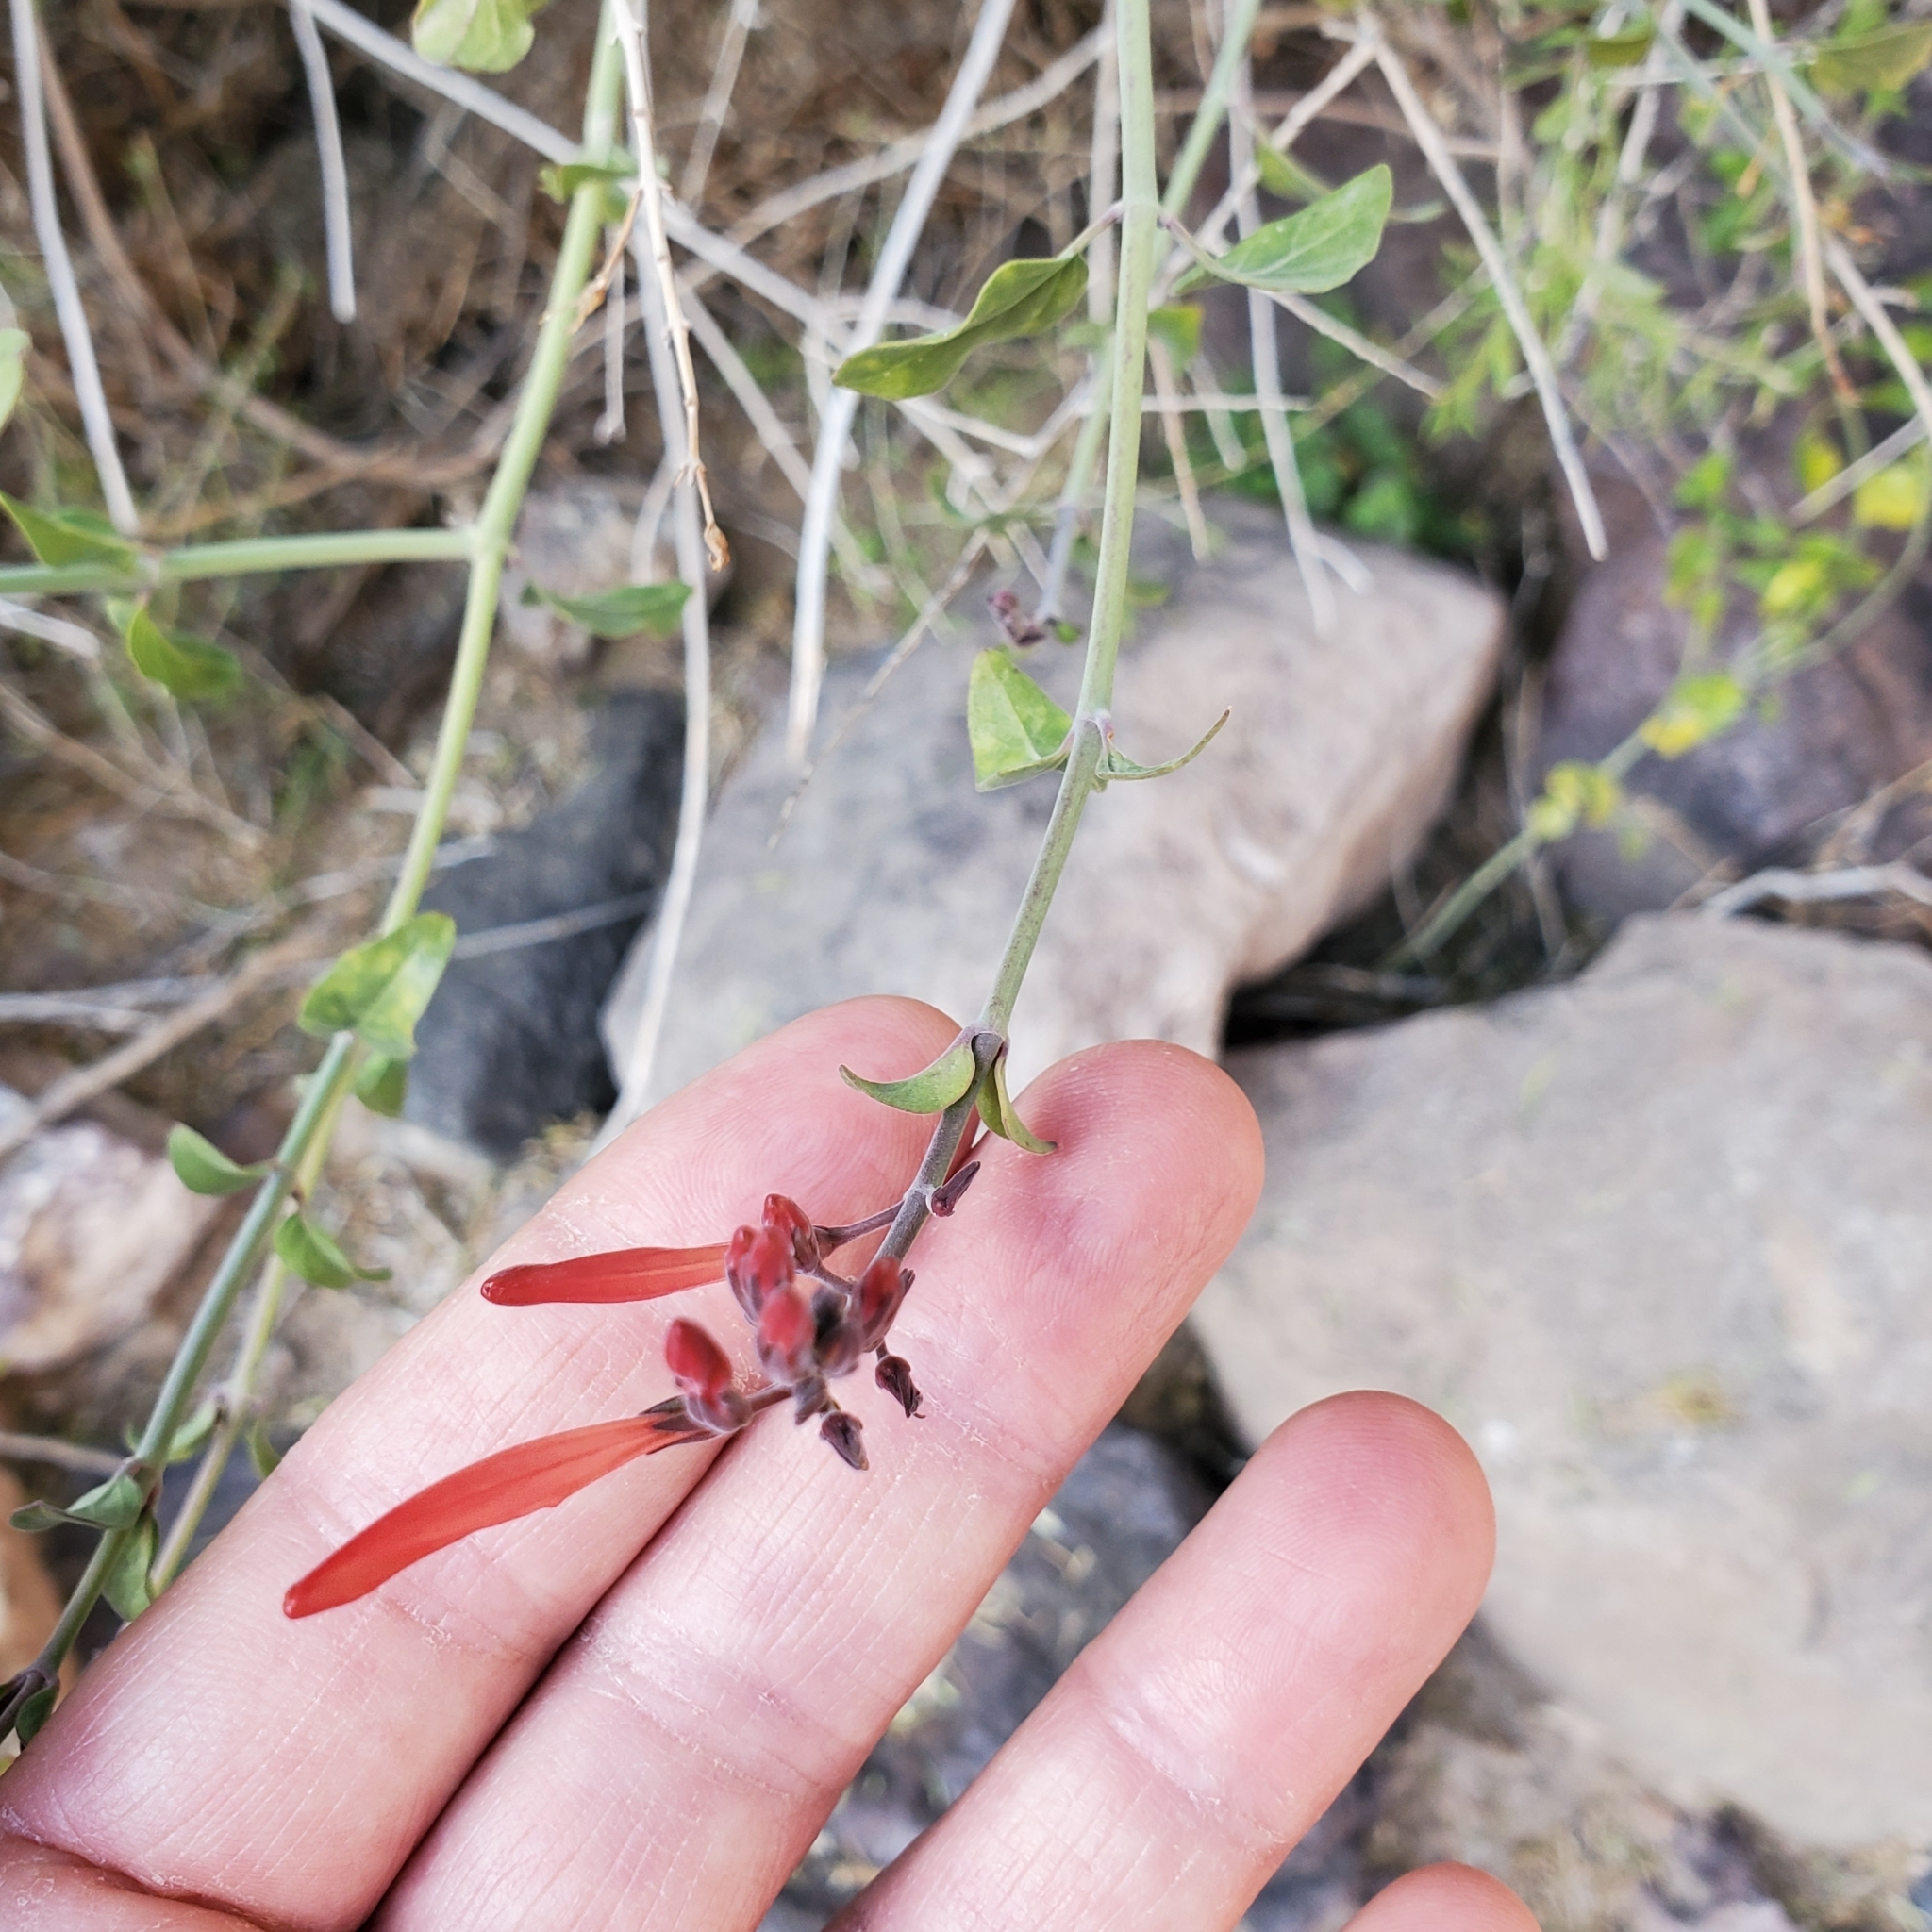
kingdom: Plantae
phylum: Tracheophyta
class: Magnoliopsida
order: Lamiales
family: Acanthaceae
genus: Justicia
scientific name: Justicia californica
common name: Chuparosa-honeysuckle
